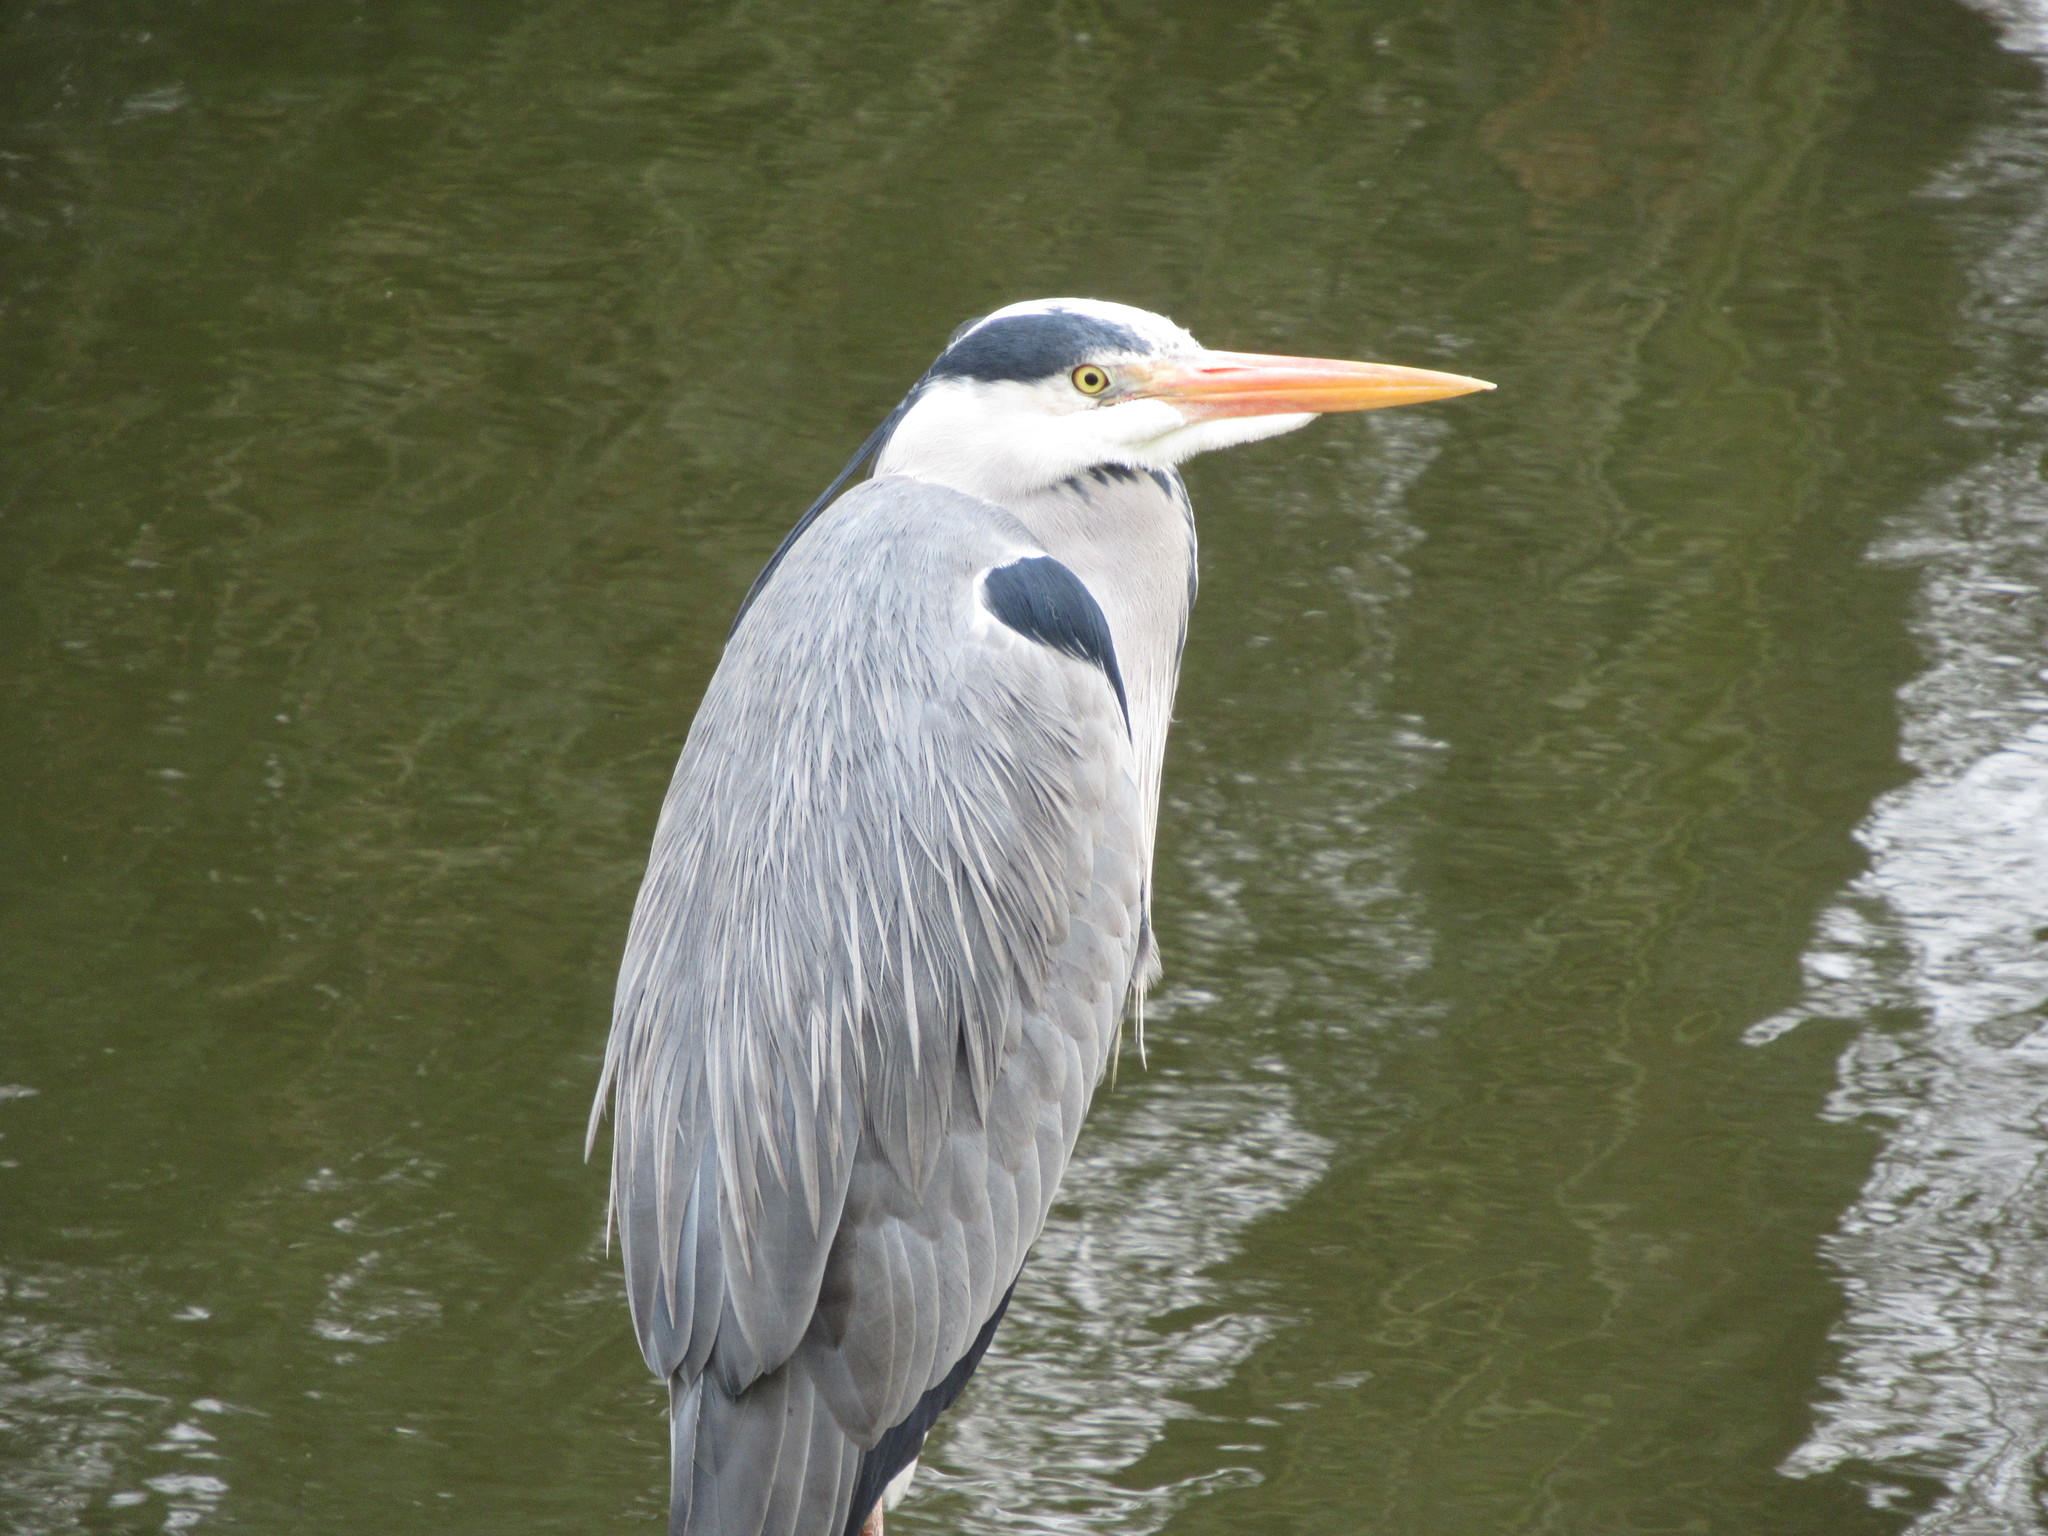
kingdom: Animalia
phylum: Chordata
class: Aves
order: Pelecaniformes
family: Ardeidae
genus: Ardea
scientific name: Ardea cinerea
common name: Grey heron
